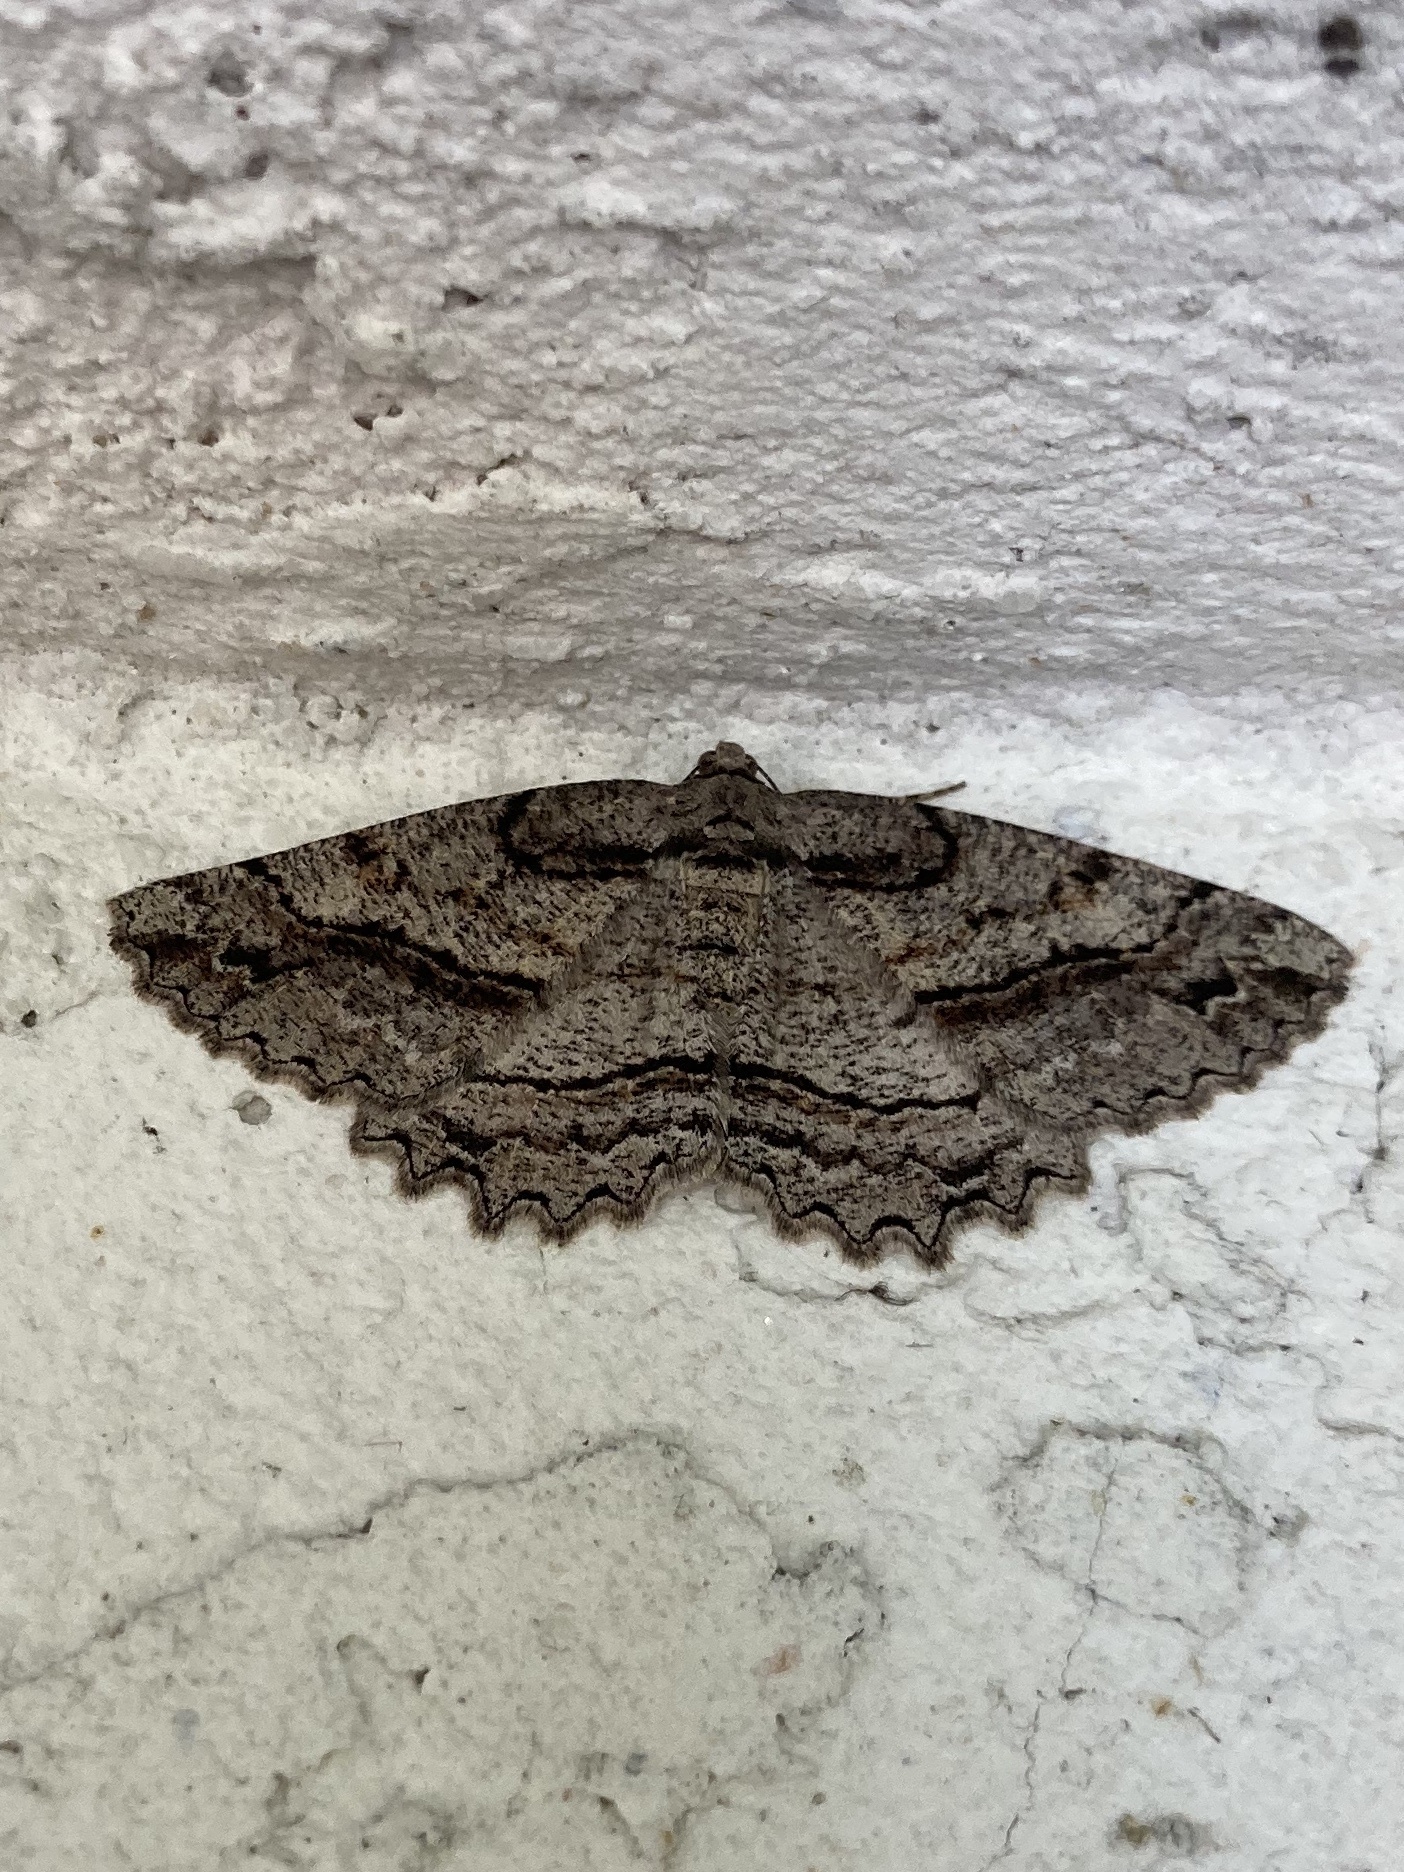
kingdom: Animalia
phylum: Arthropoda
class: Insecta
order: Lepidoptera
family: Geometridae
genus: Neoalcis
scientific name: Neoalcis californiaria
